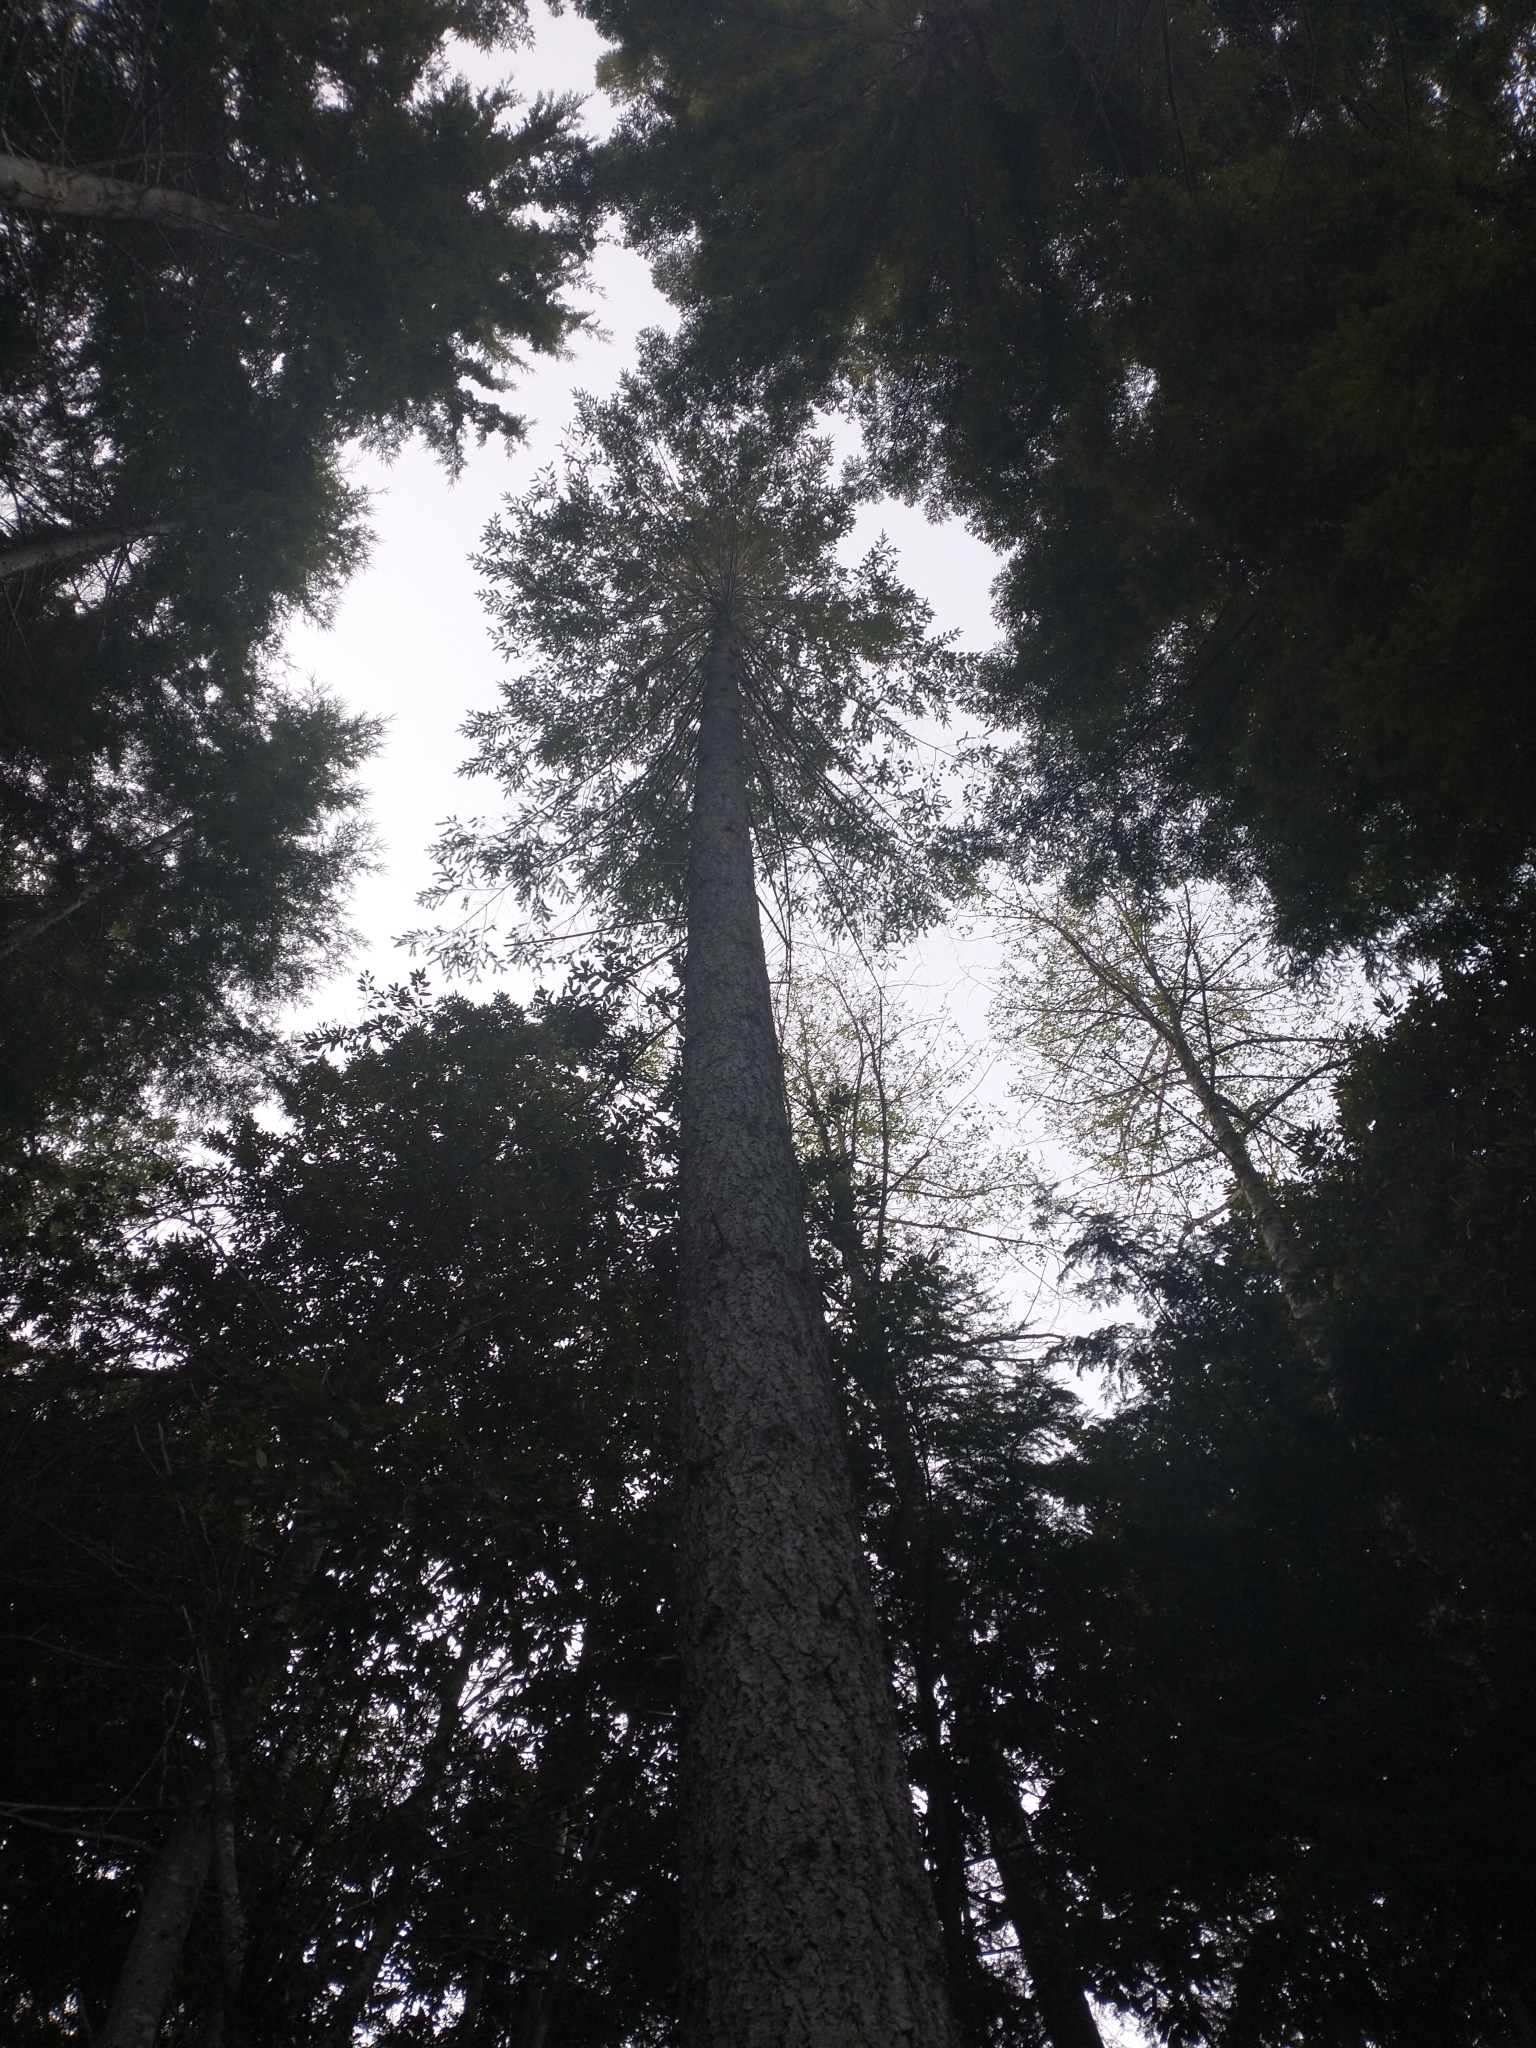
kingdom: Plantae
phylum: Tracheophyta
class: Pinopsida
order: Pinales
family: Pinaceae
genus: Pseudotsuga
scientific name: Pseudotsuga menziesii
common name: Douglas fir
